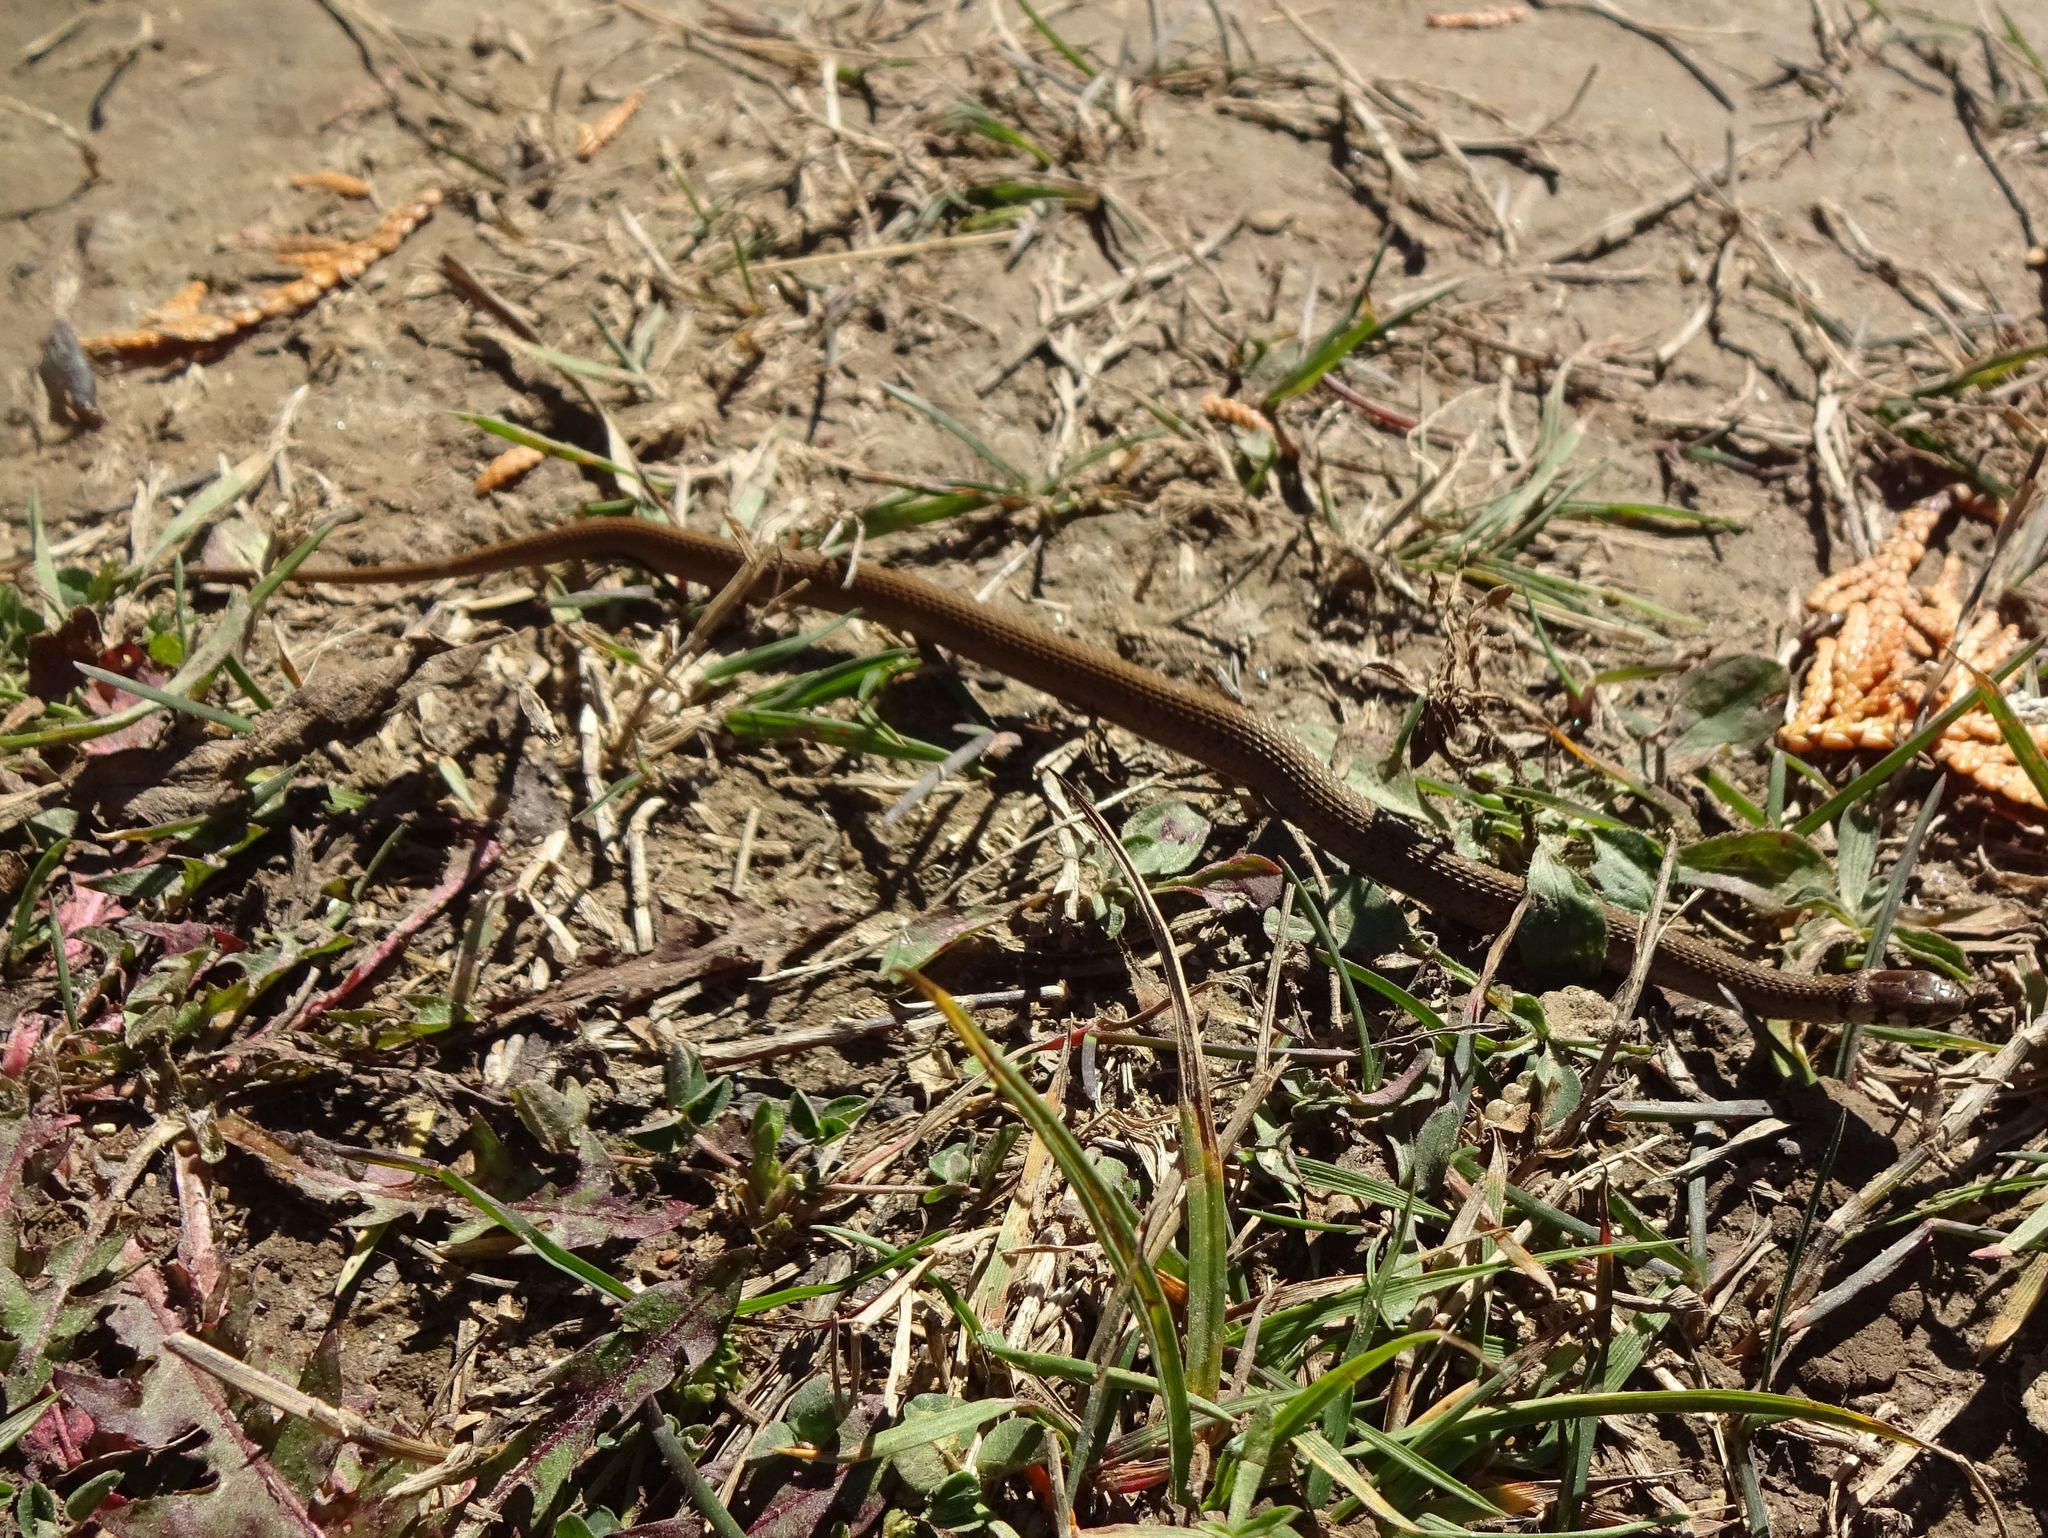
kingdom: Animalia
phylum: Chordata
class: Squamata
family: Colubridae
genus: Storeria
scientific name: Storeria dekayi
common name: (dekay’s) brown snake
